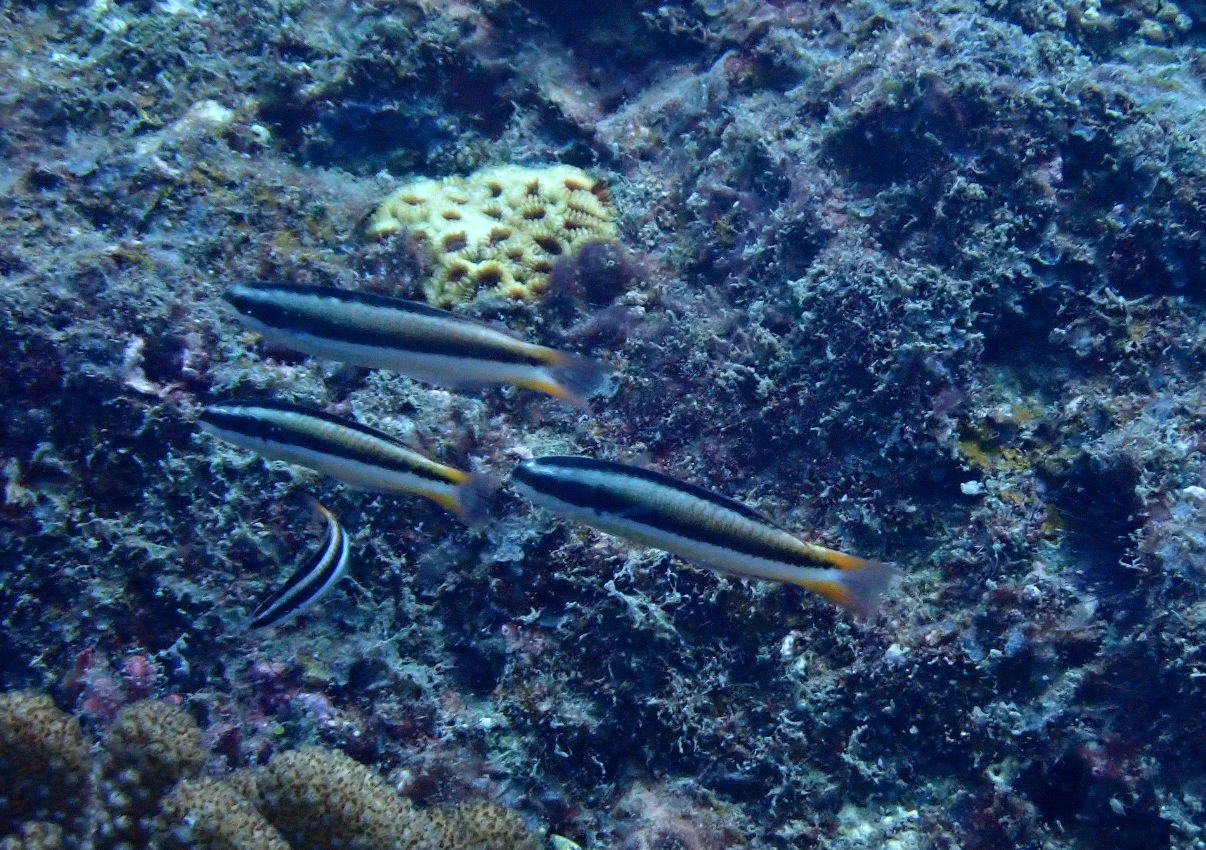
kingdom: Animalia
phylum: Chordata
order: Perciformes
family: Labridae
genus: Thalassoma
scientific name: Thalassoma amblycephalum
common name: Bluehead wrasse
